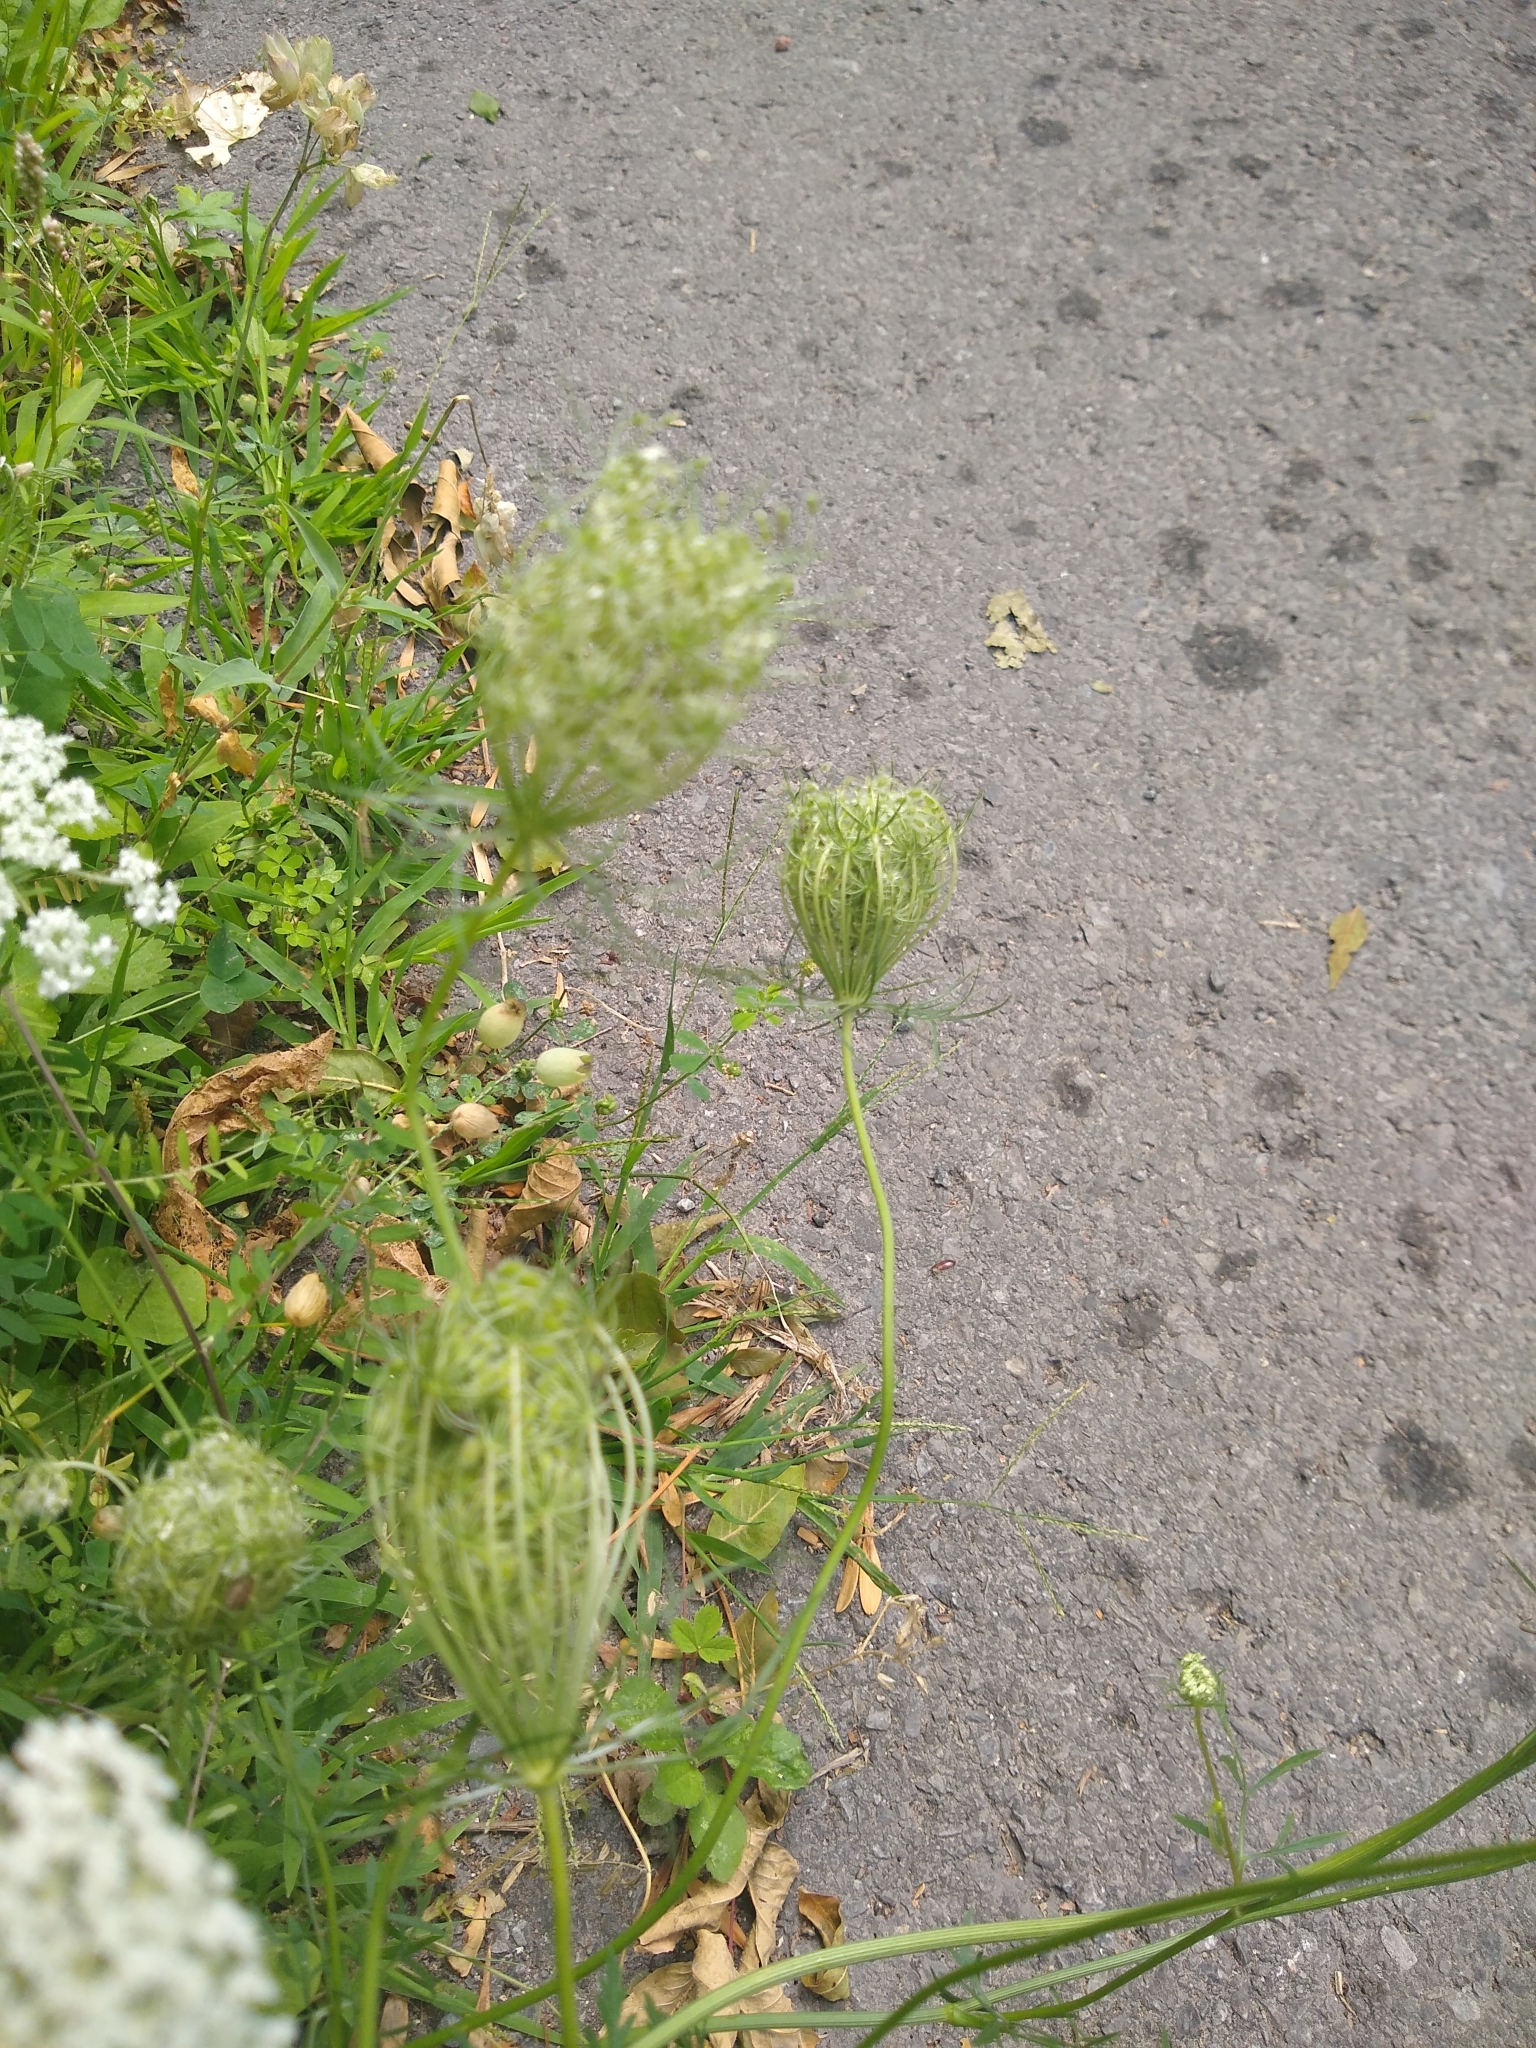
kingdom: Plantae
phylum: Tracheophyta
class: Magnoliopsida
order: Apiales
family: Apiaceae
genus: Daucus
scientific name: Daucus carota
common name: Wild carrot
